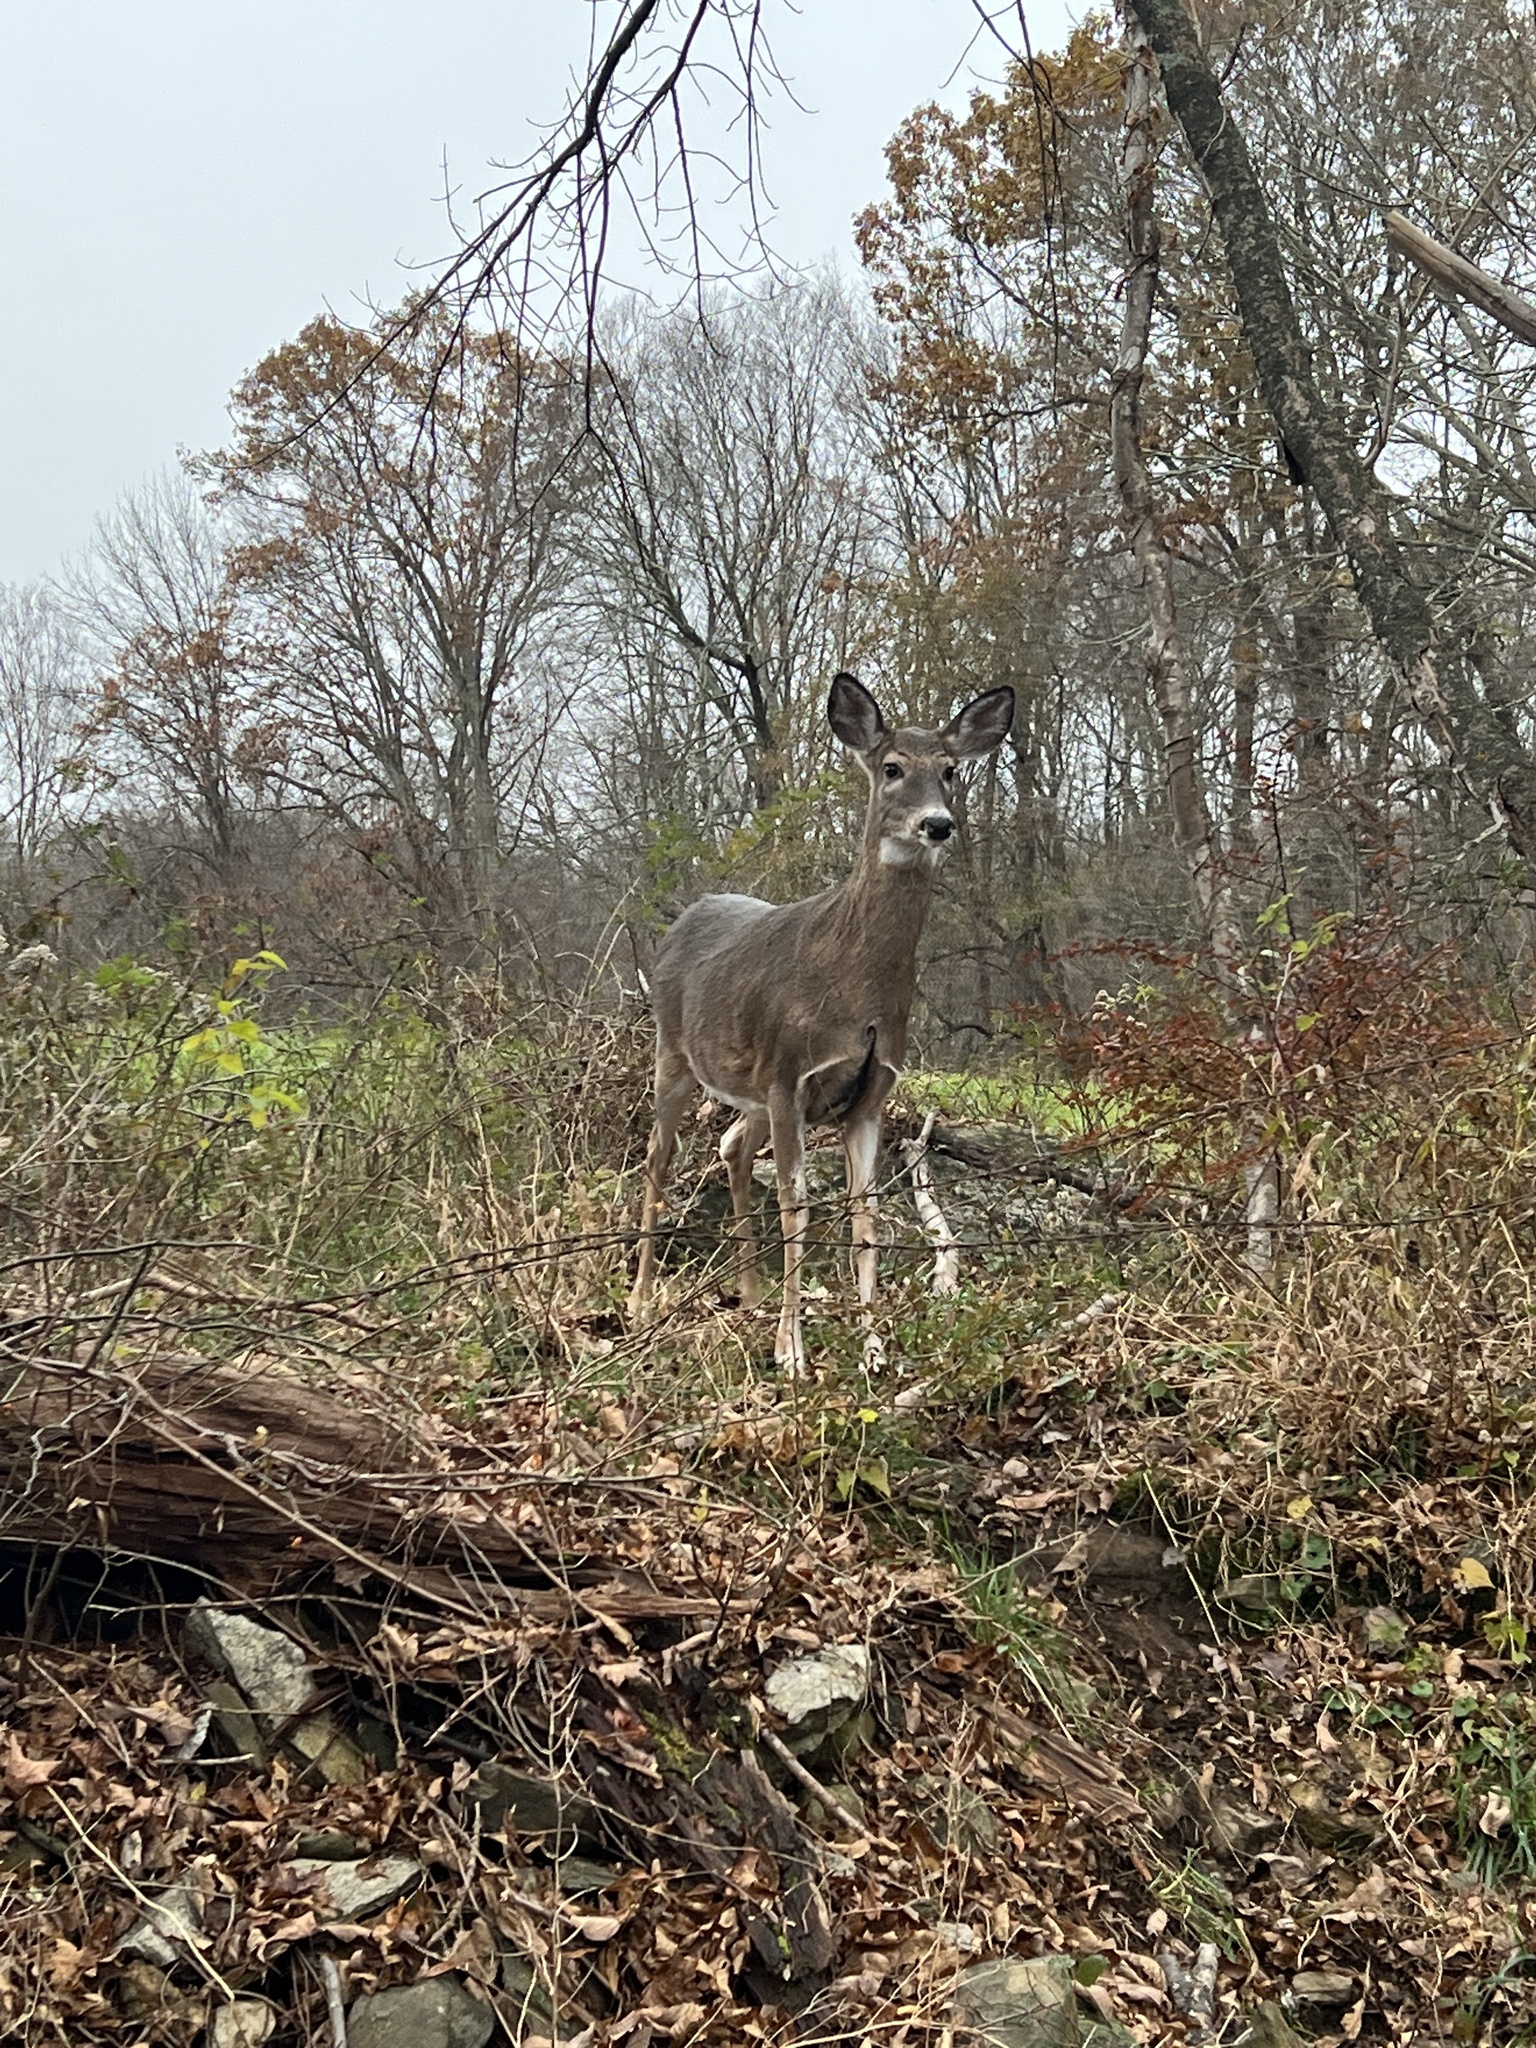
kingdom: Animalia
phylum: Chordata
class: Mammalia
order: Artiodactyla
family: Cervidae
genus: Odocoileus
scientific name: Odocoileus virginianus
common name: White-tailed deer
